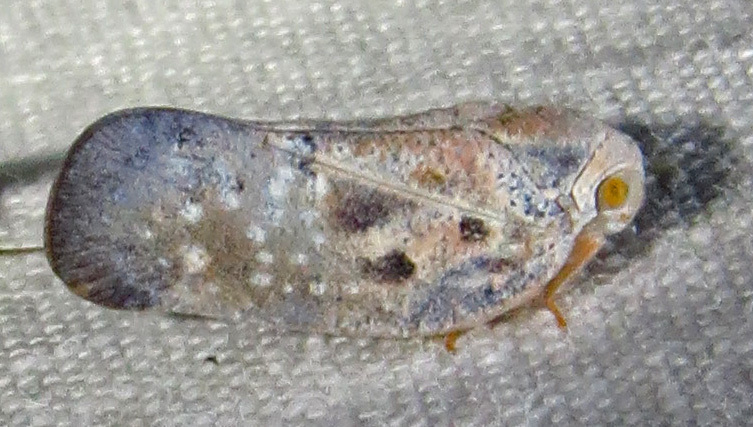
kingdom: Animalia
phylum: Arthropoda
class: Insecta
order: Hemiptera
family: Flatidae
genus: Metcalfa
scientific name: Metcalfa pruinosa
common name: Citrus flatid planthopper
